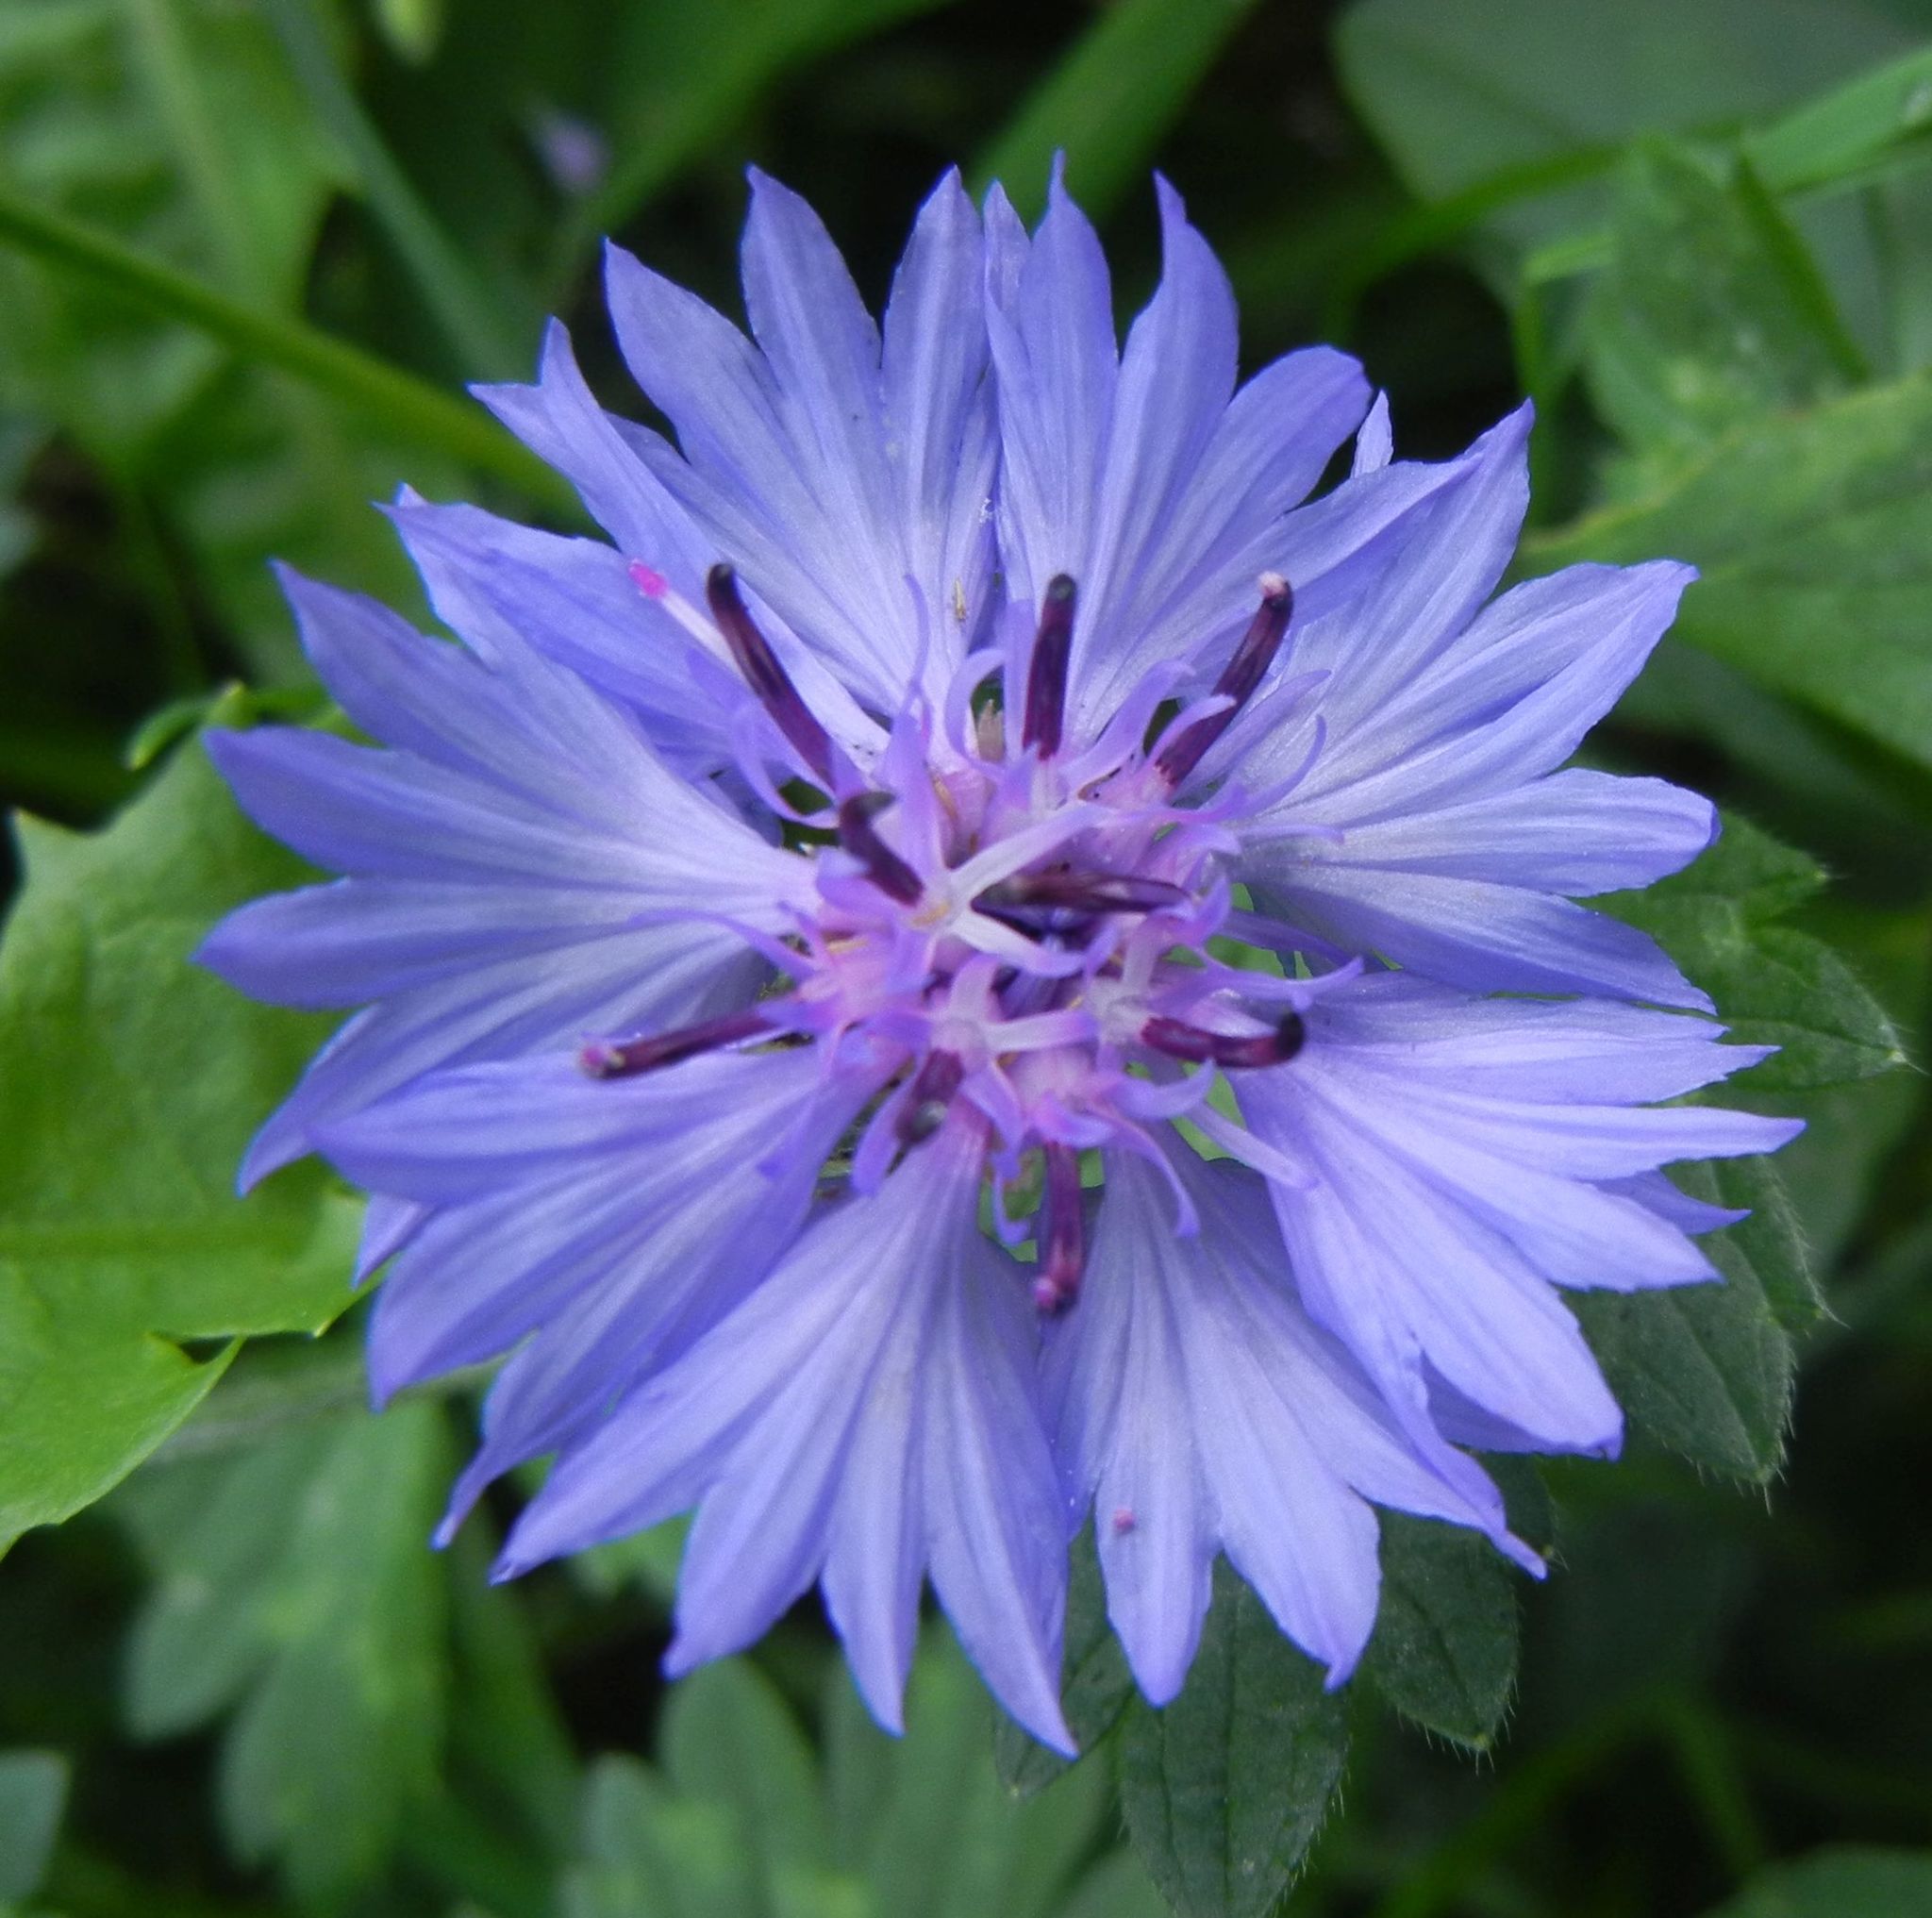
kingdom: Plantae
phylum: Tracheophyta
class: Magnoliopsida
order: Asterales
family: Asteraceae
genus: Centaurea
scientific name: Centaurea cyanus
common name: Cornflower
